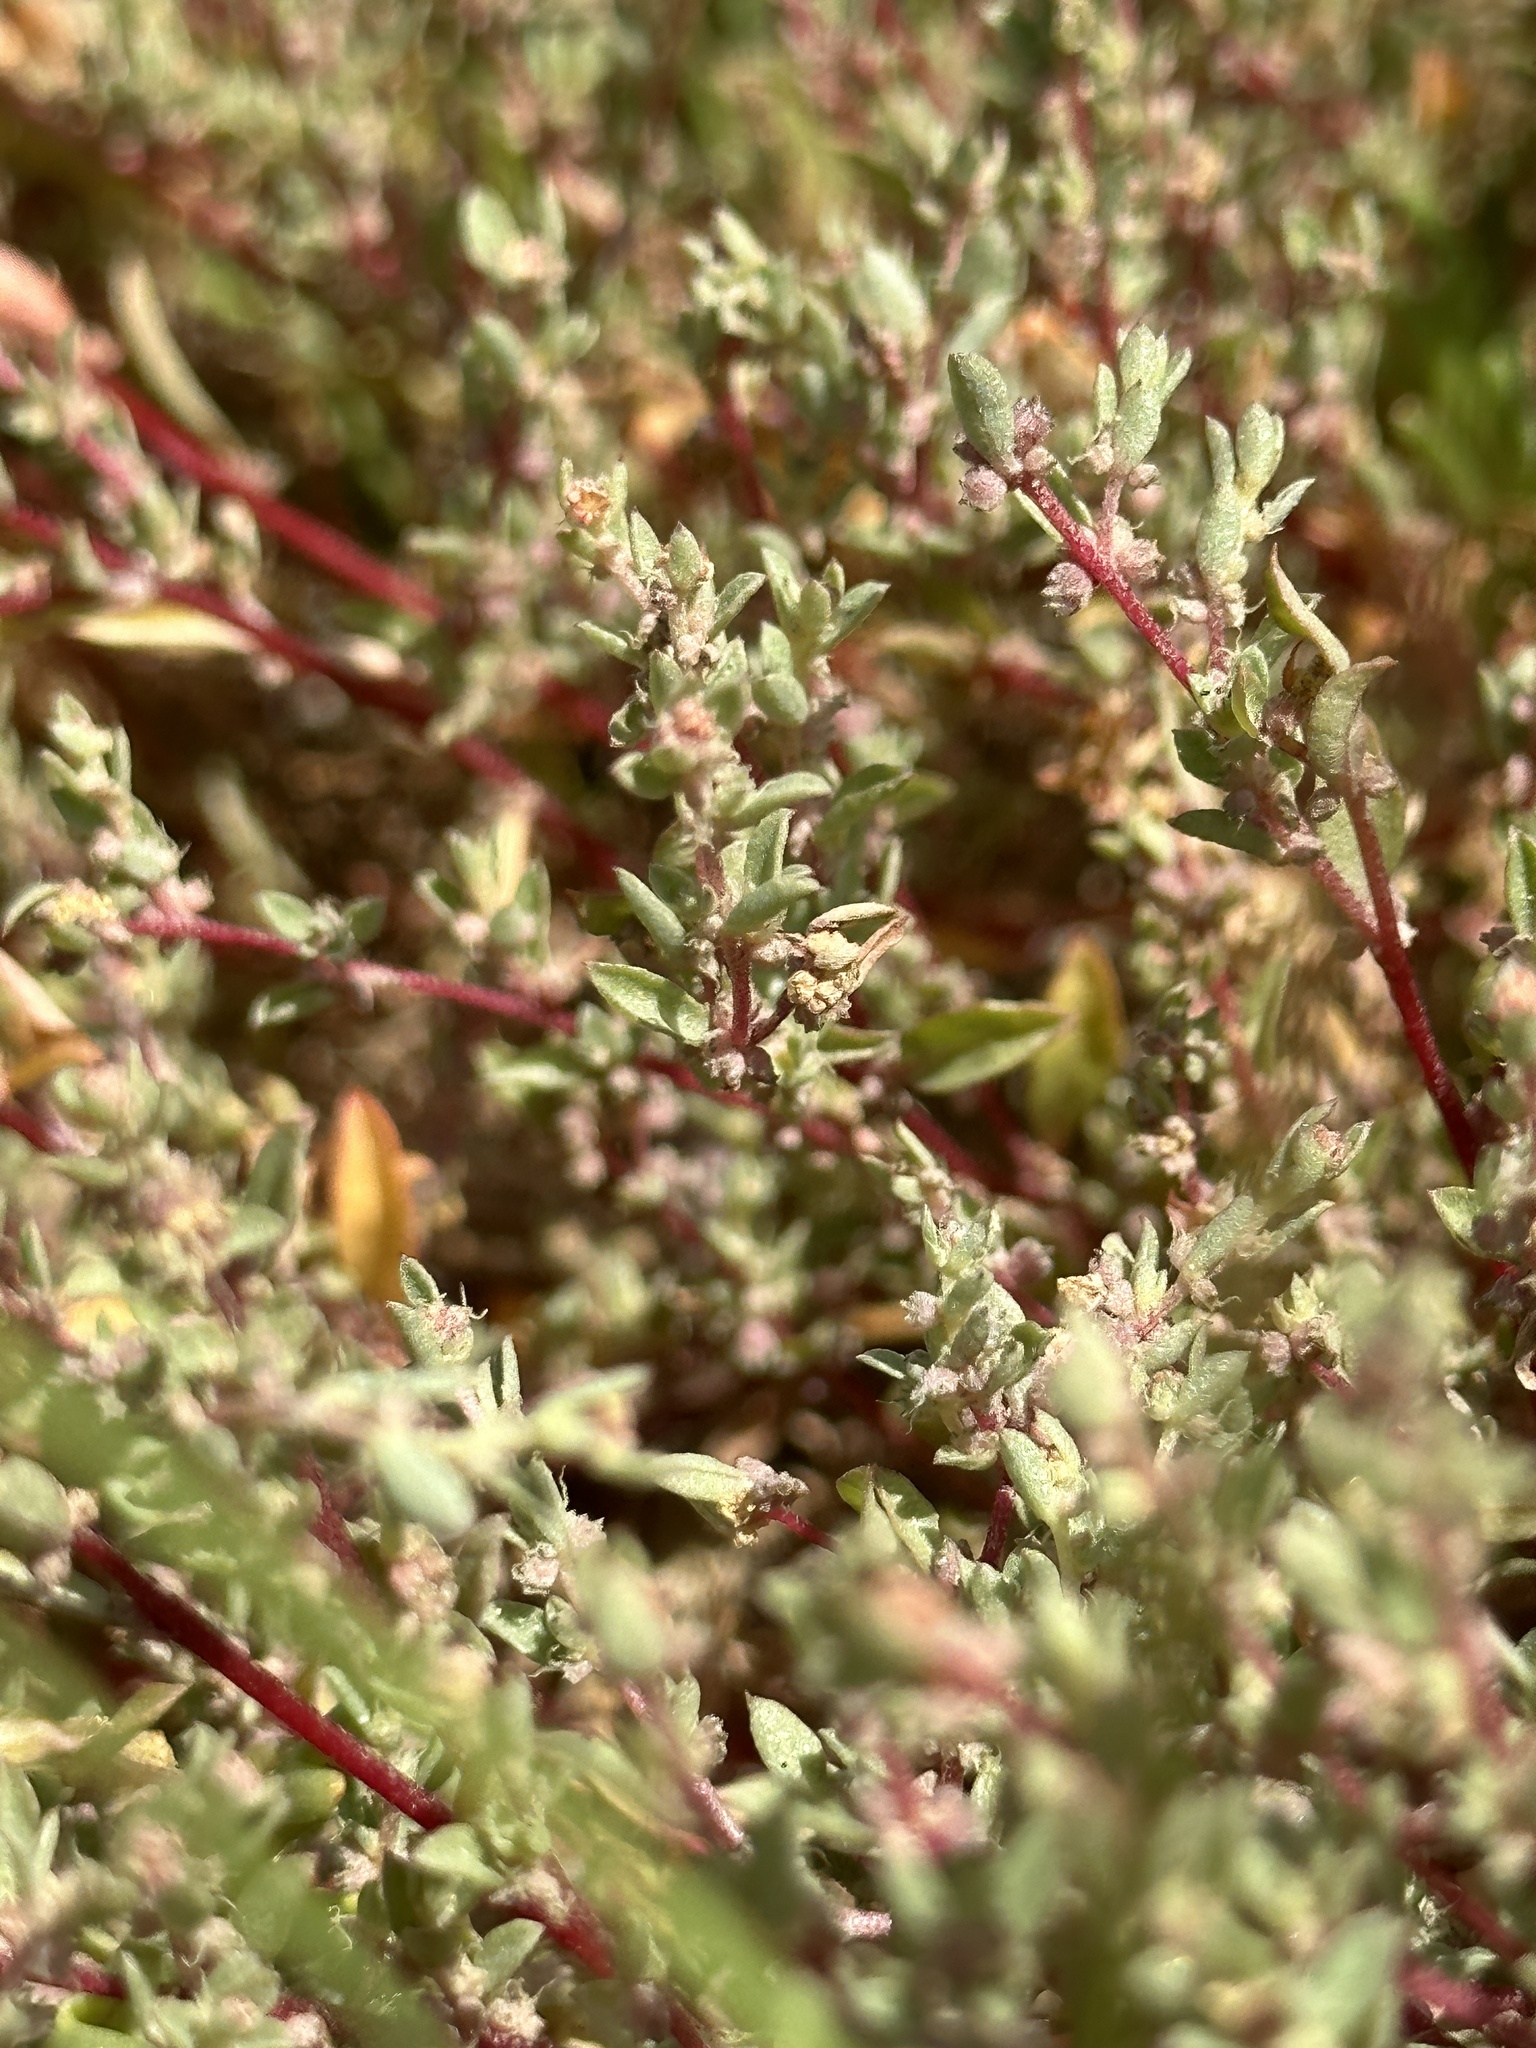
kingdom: Plantae
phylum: Tracheophyta
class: Magnoliopsida
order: Caryophyllales
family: Amaranthaceae
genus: Atriplex
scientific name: Atriplex pacifica
